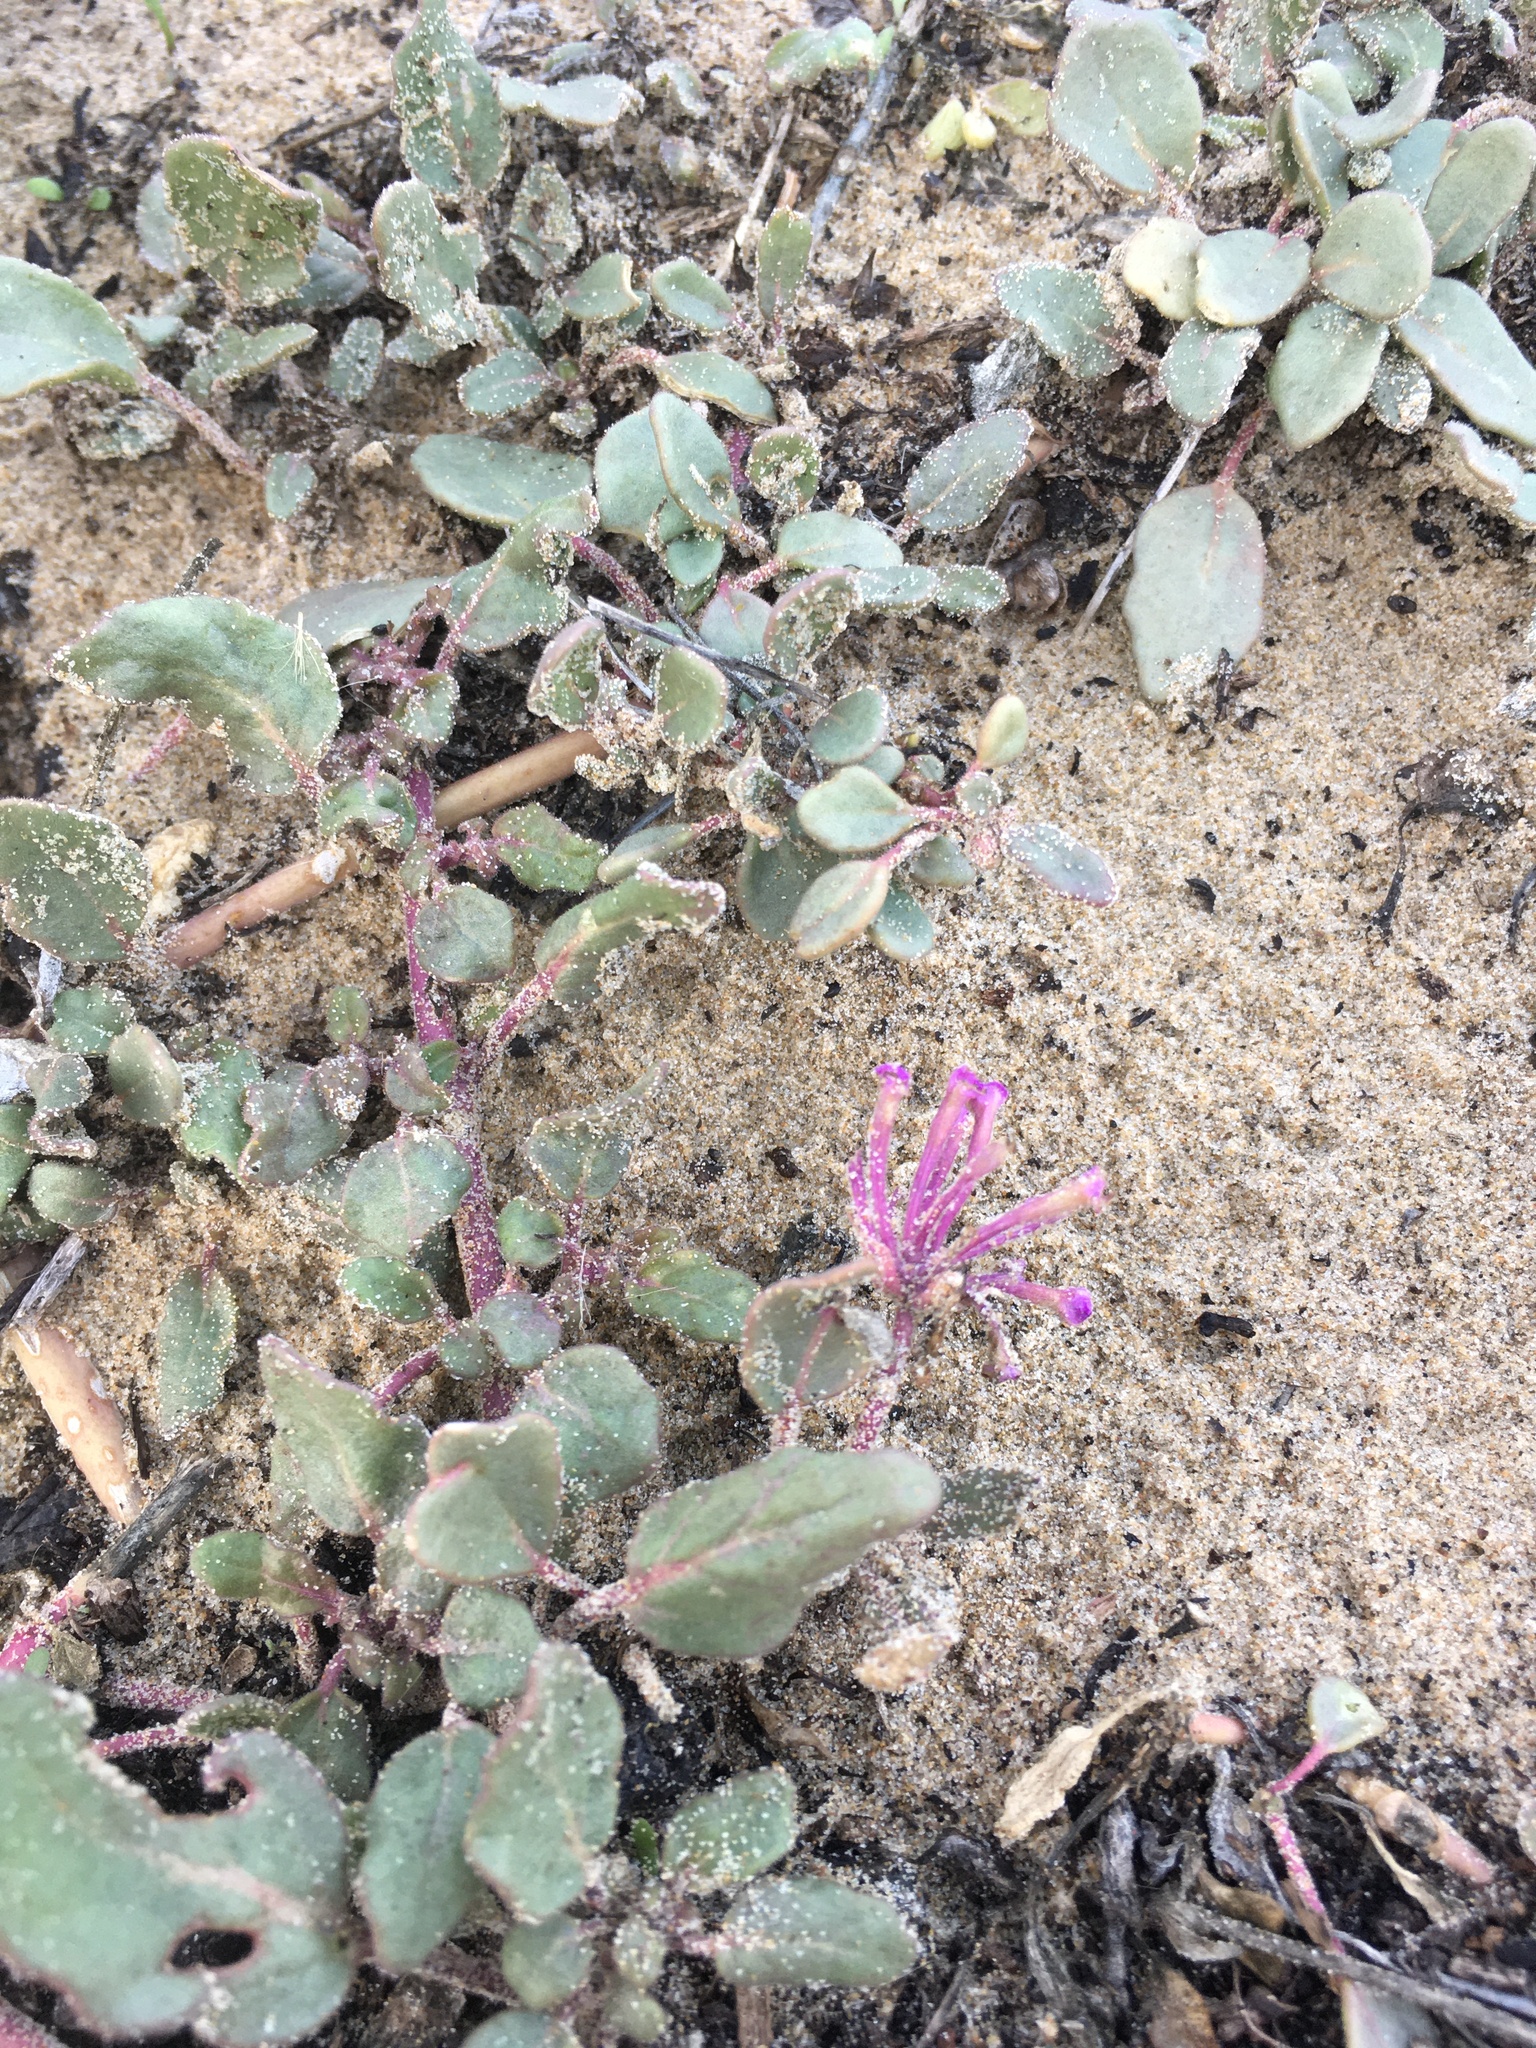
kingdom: Plantae
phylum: Tracheophyta
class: Magnoliopsida
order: Caryophyllales
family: Nyctaginaceae
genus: Abronia
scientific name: Abronia umbellata
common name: Sand-verbena
